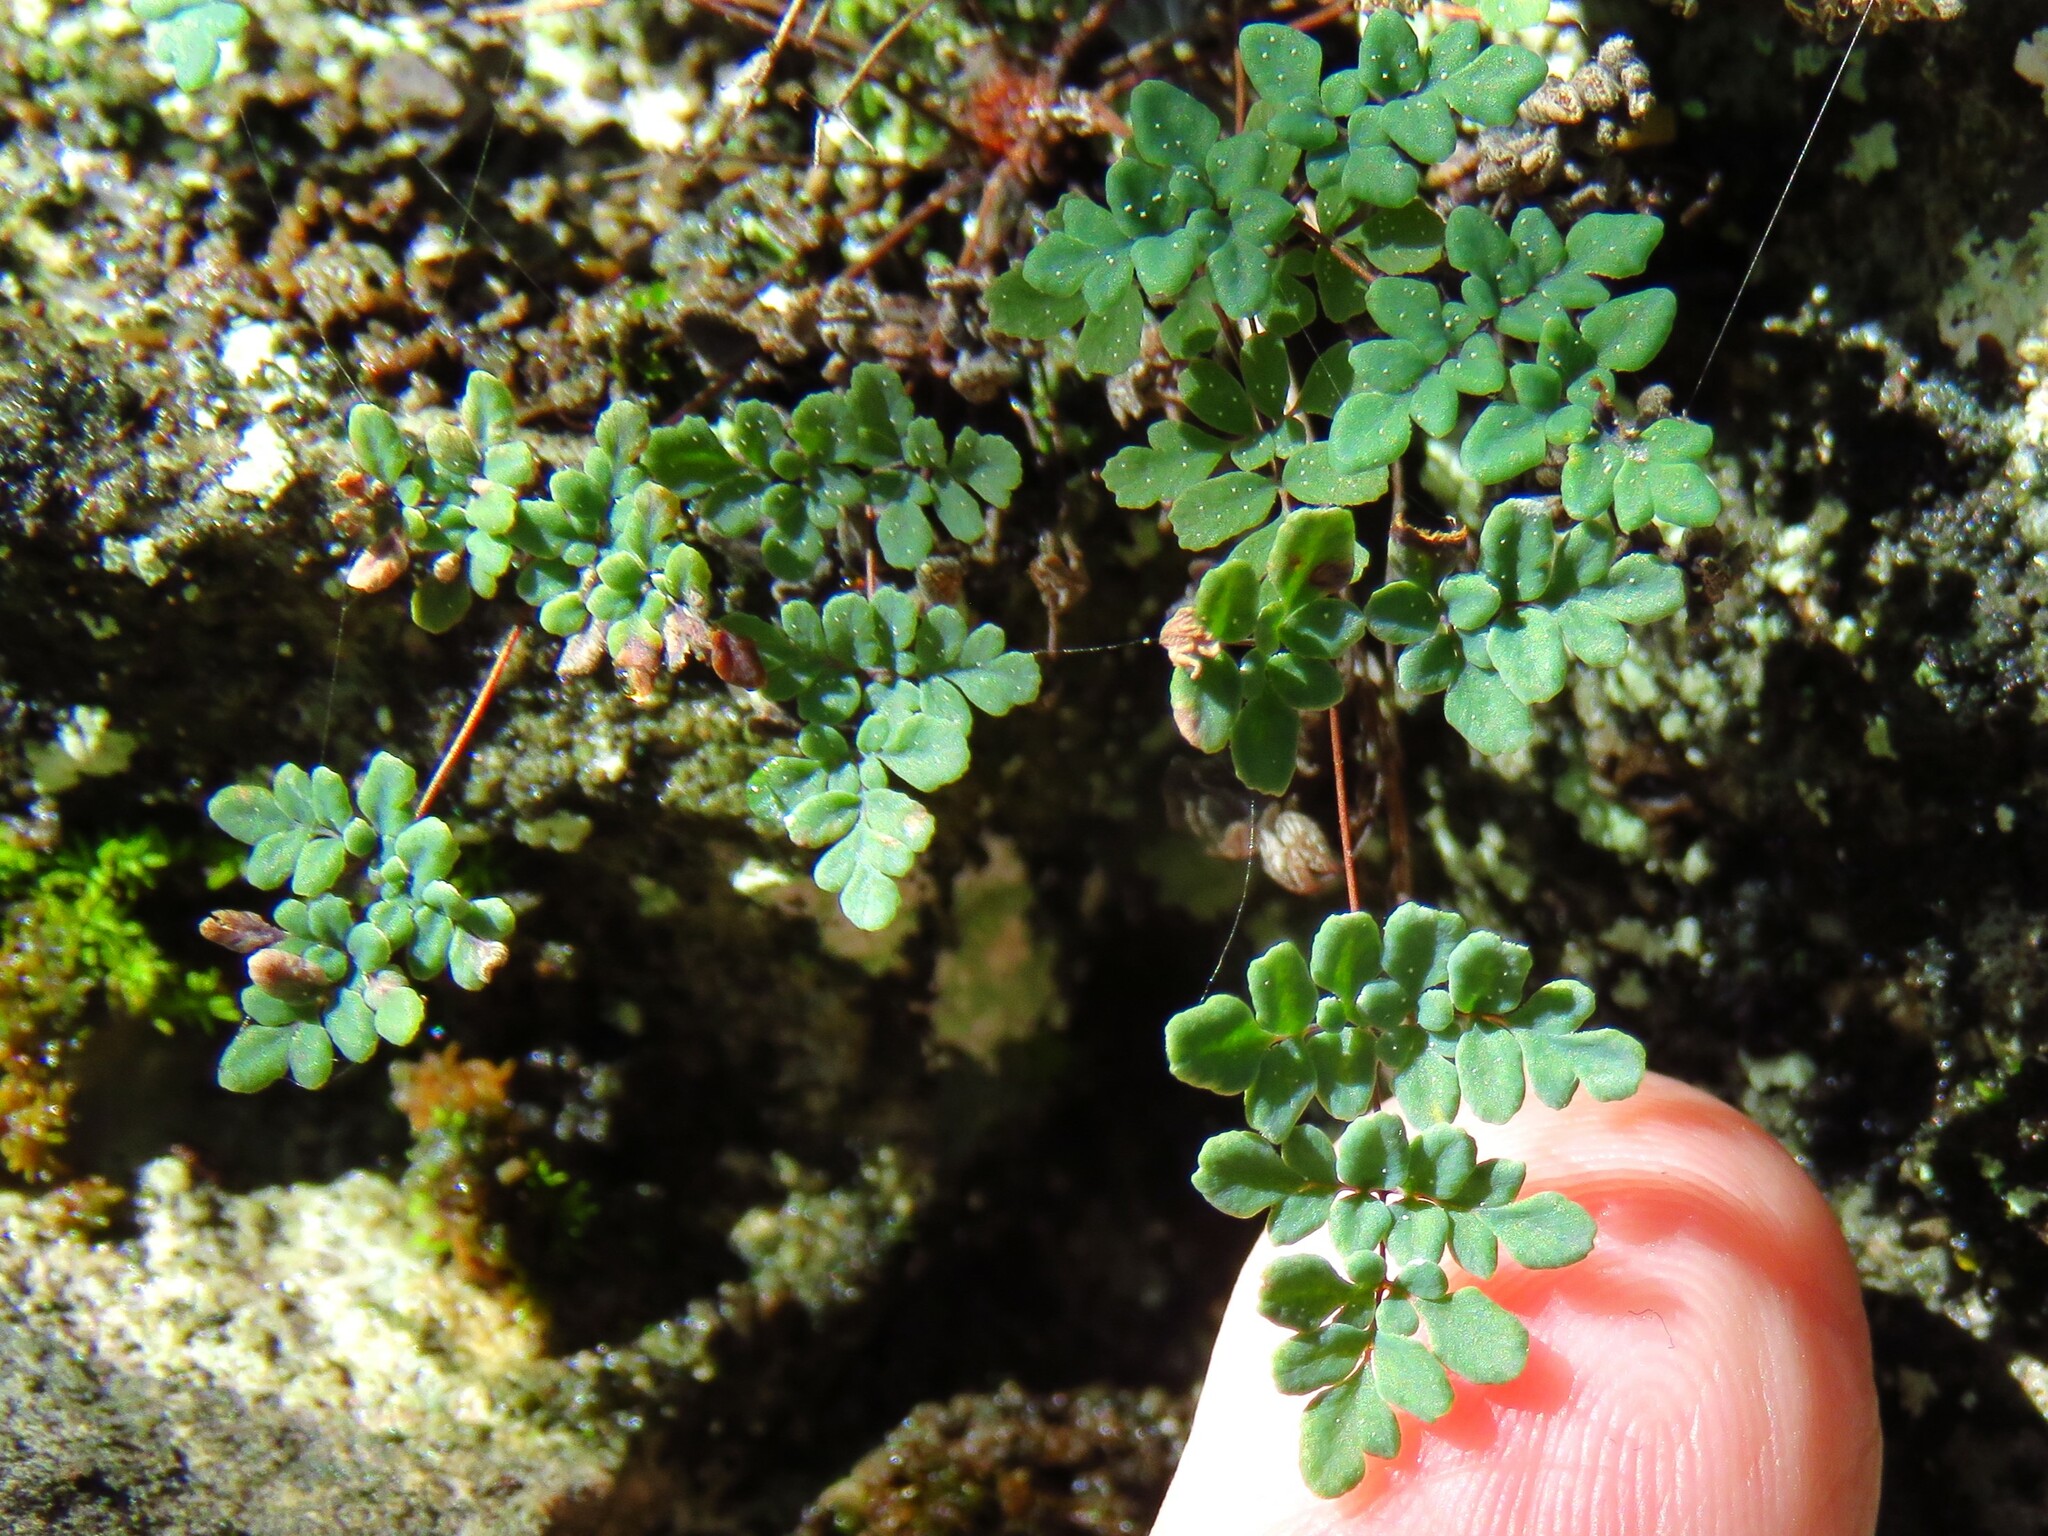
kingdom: Plantae
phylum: Tracheophyta
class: Polypodiopsida
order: Polypodiales
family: Pteridaceae
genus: Argyrochosma
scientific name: Argyrochosma dealbata
